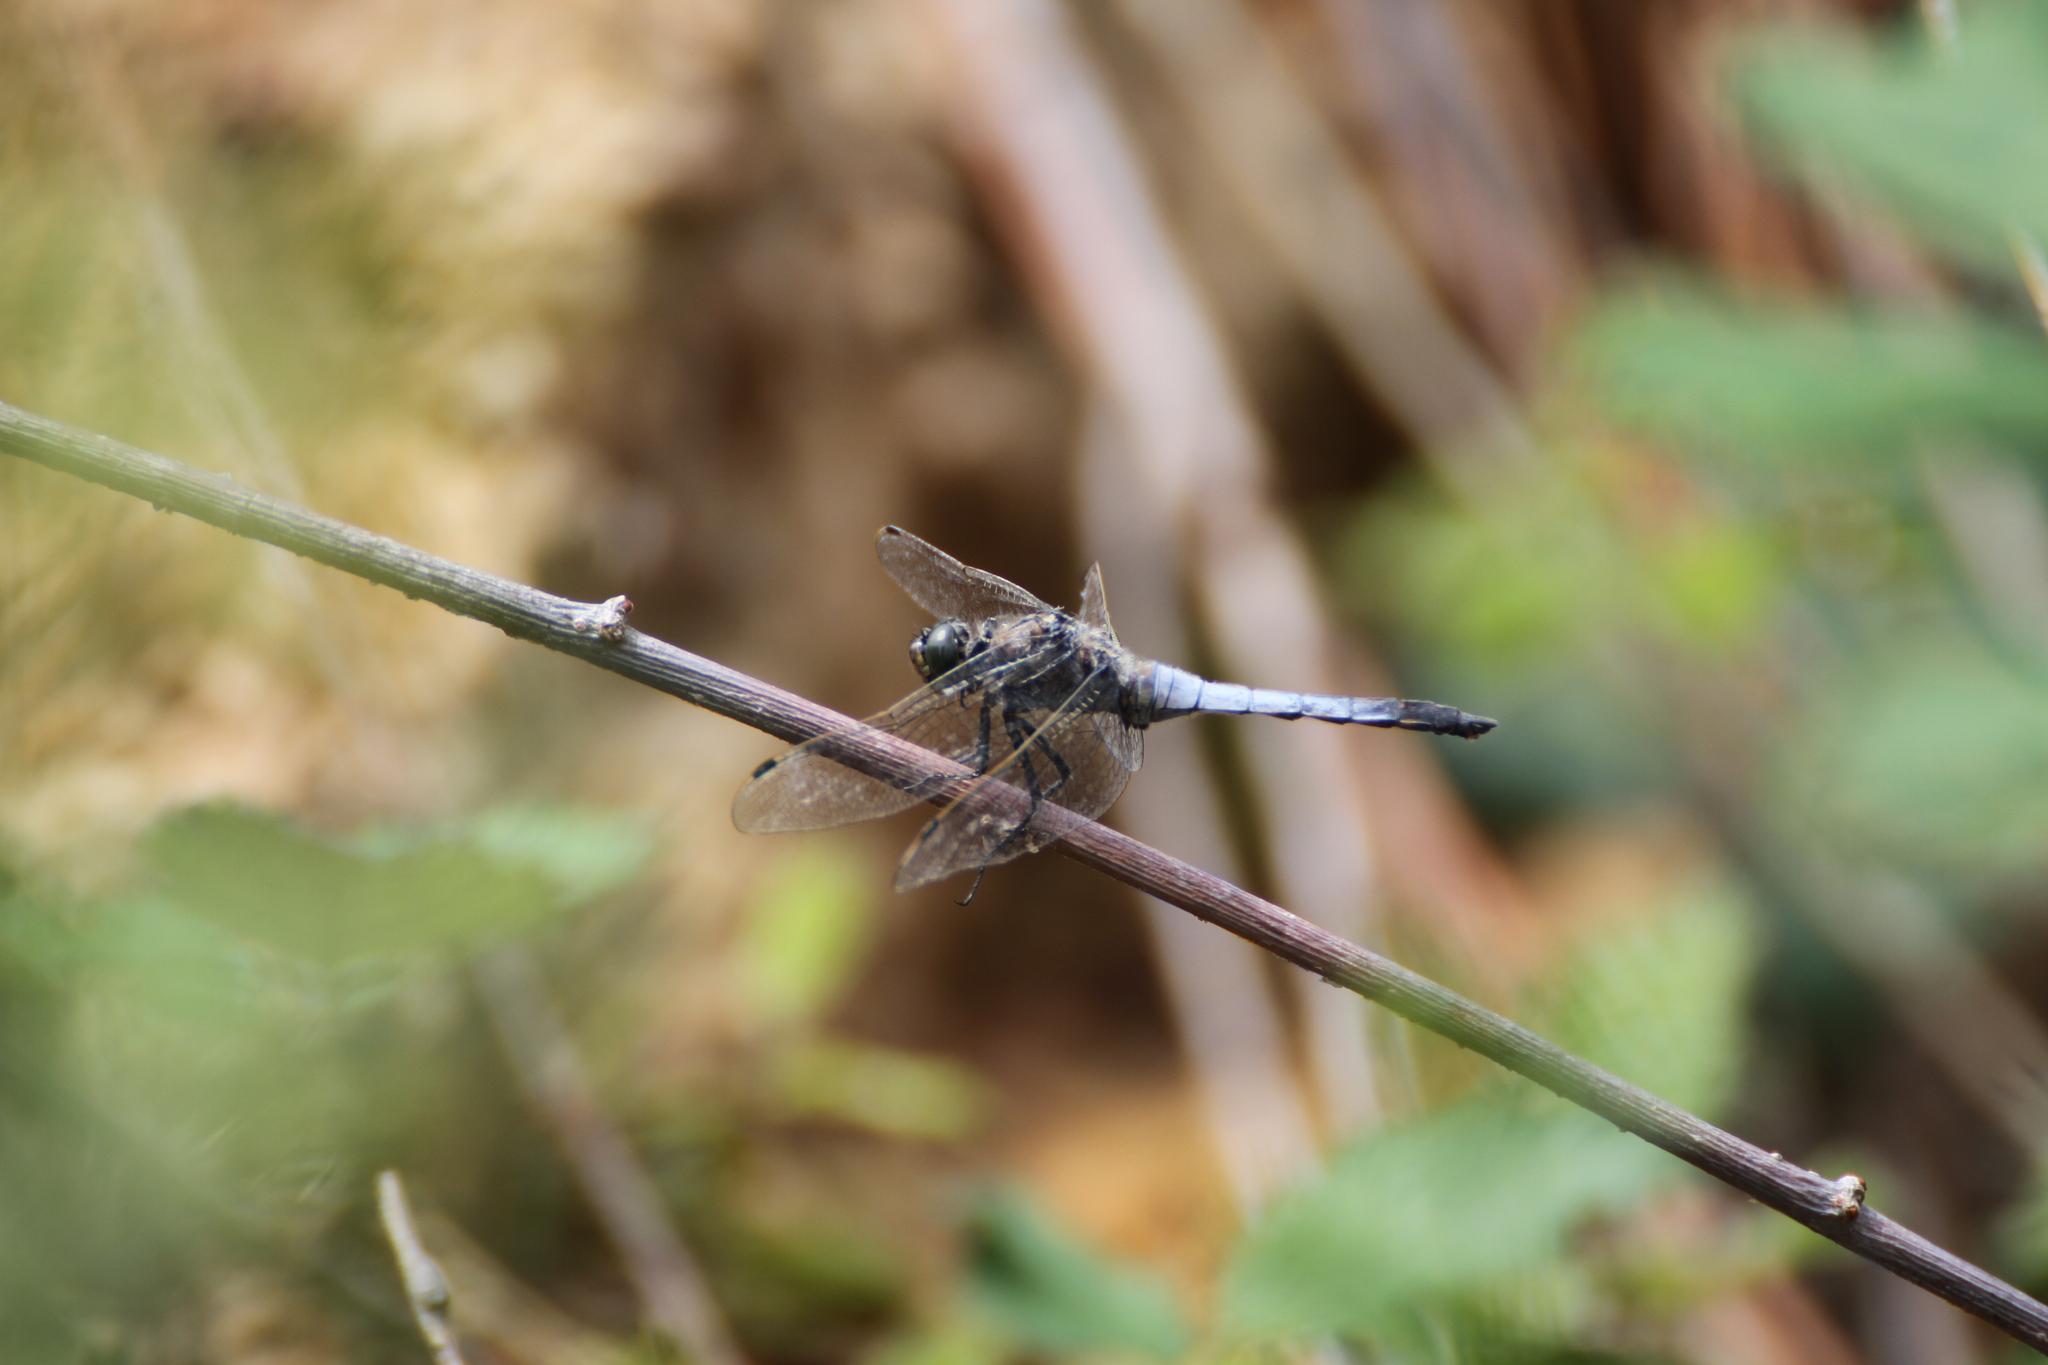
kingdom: Animalia
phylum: Arthropoda
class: Insecta
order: Odonata
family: Libellulidae
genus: Orthetrum
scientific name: Orthetrum cancellatum
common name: Black-tailed skimmer
